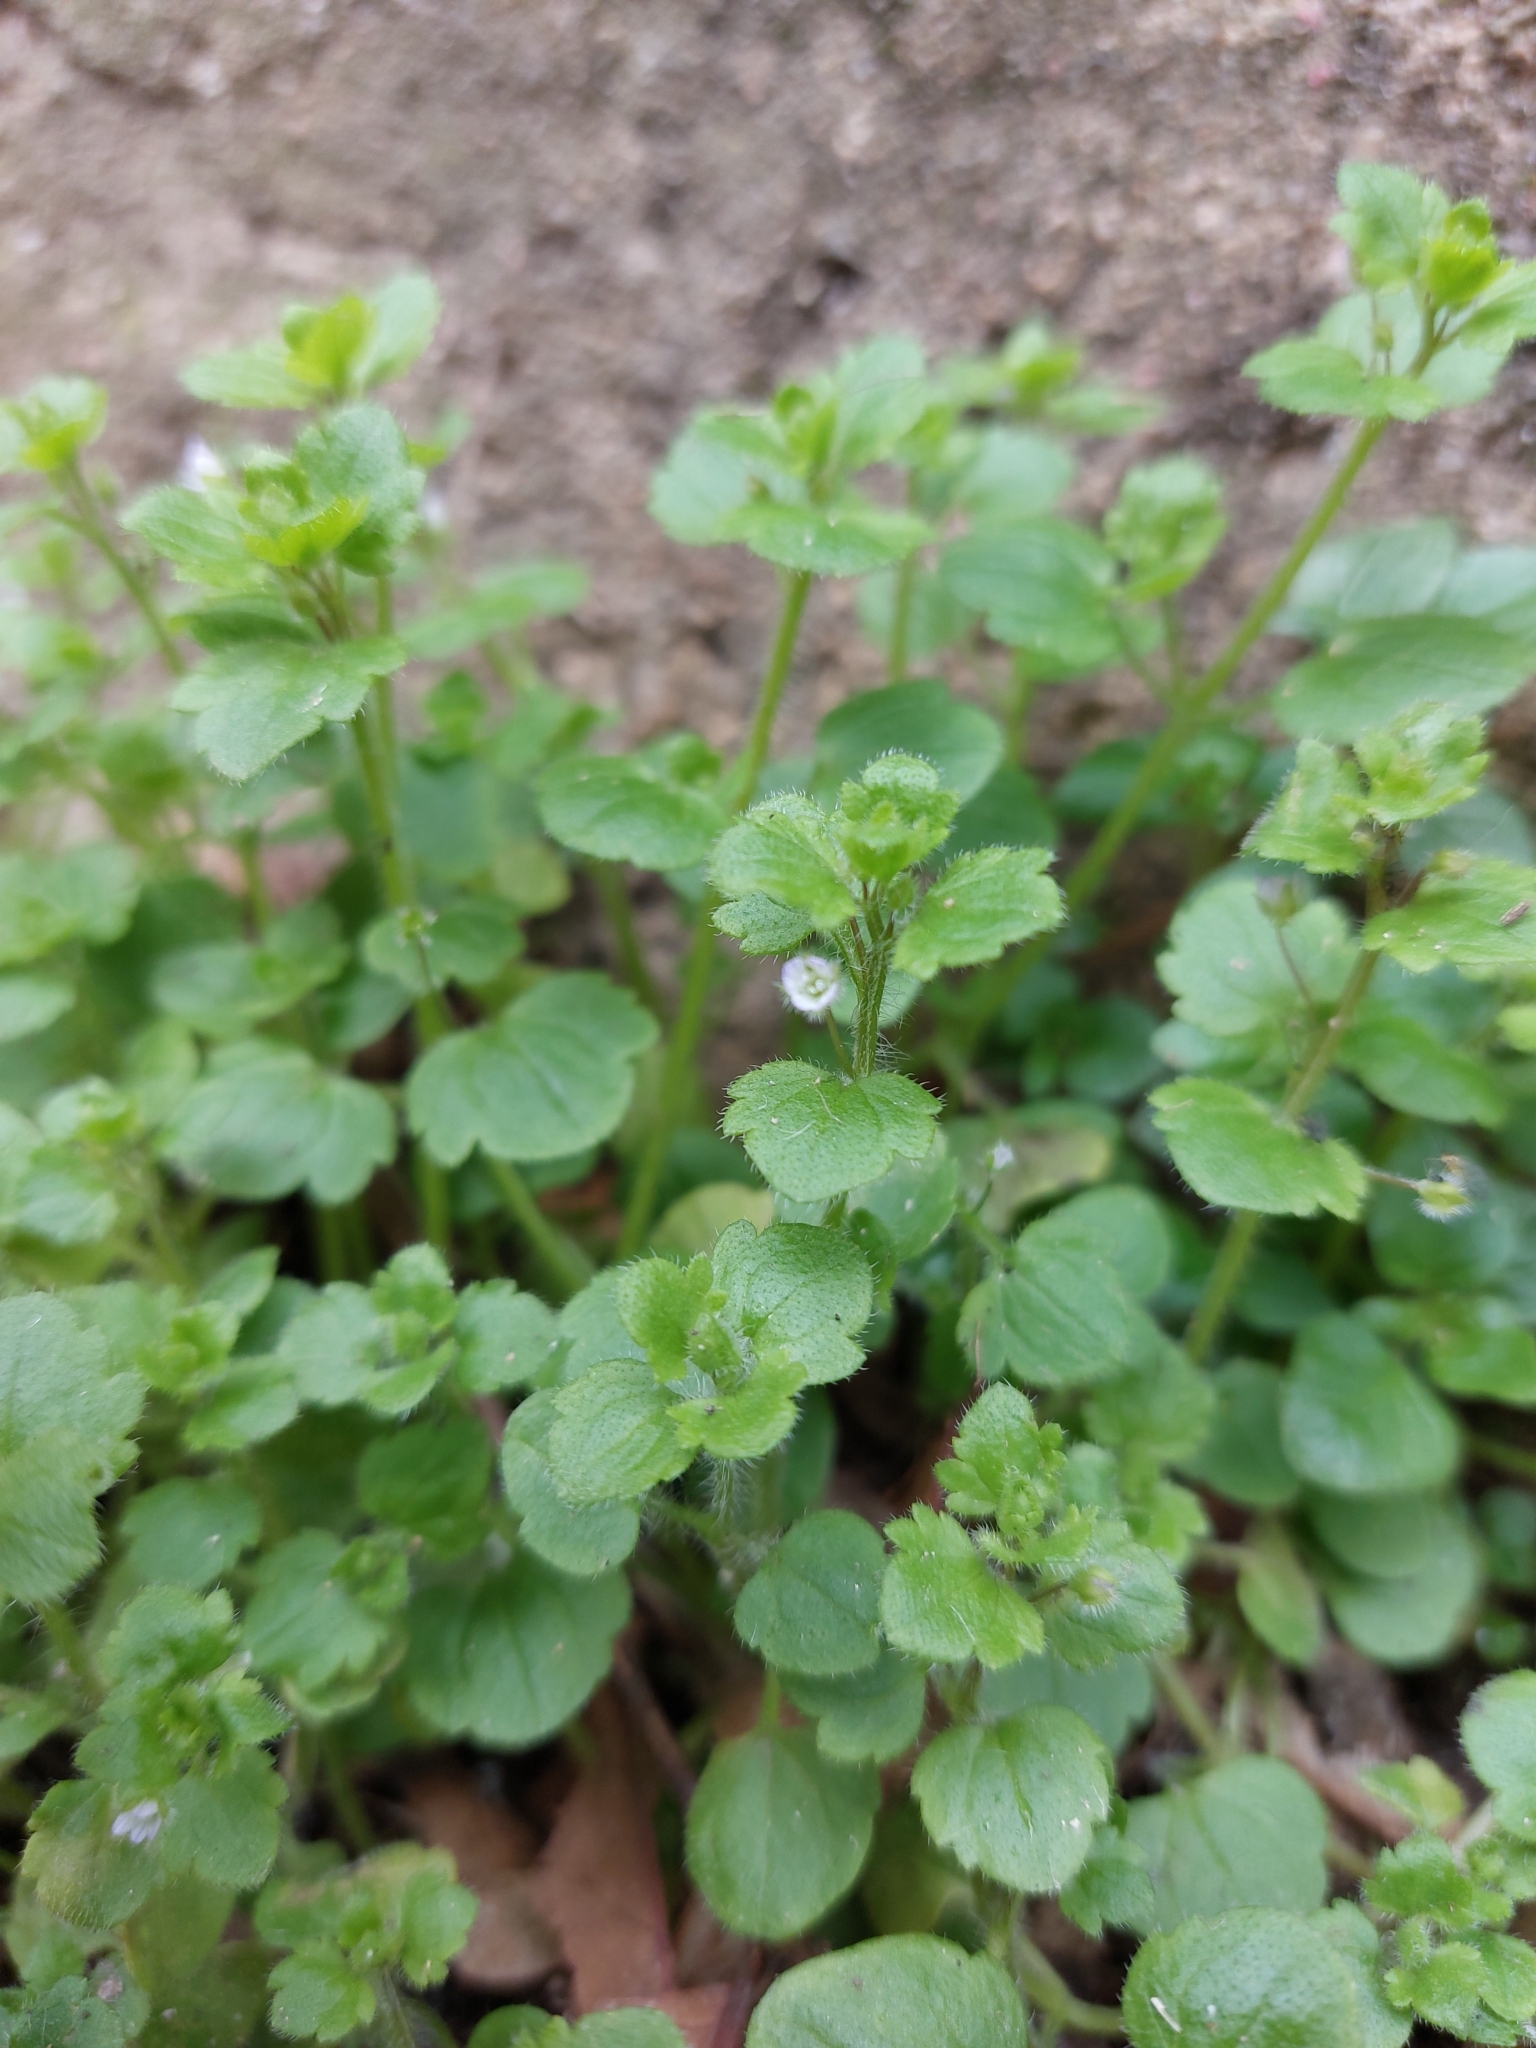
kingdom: Plantae
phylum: Tracheophyta
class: Magnoliopsida
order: Lamiales
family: Plantaginaceae
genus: Veronica
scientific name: Veronica hederifolia
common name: Ivy-leaved speedwell
